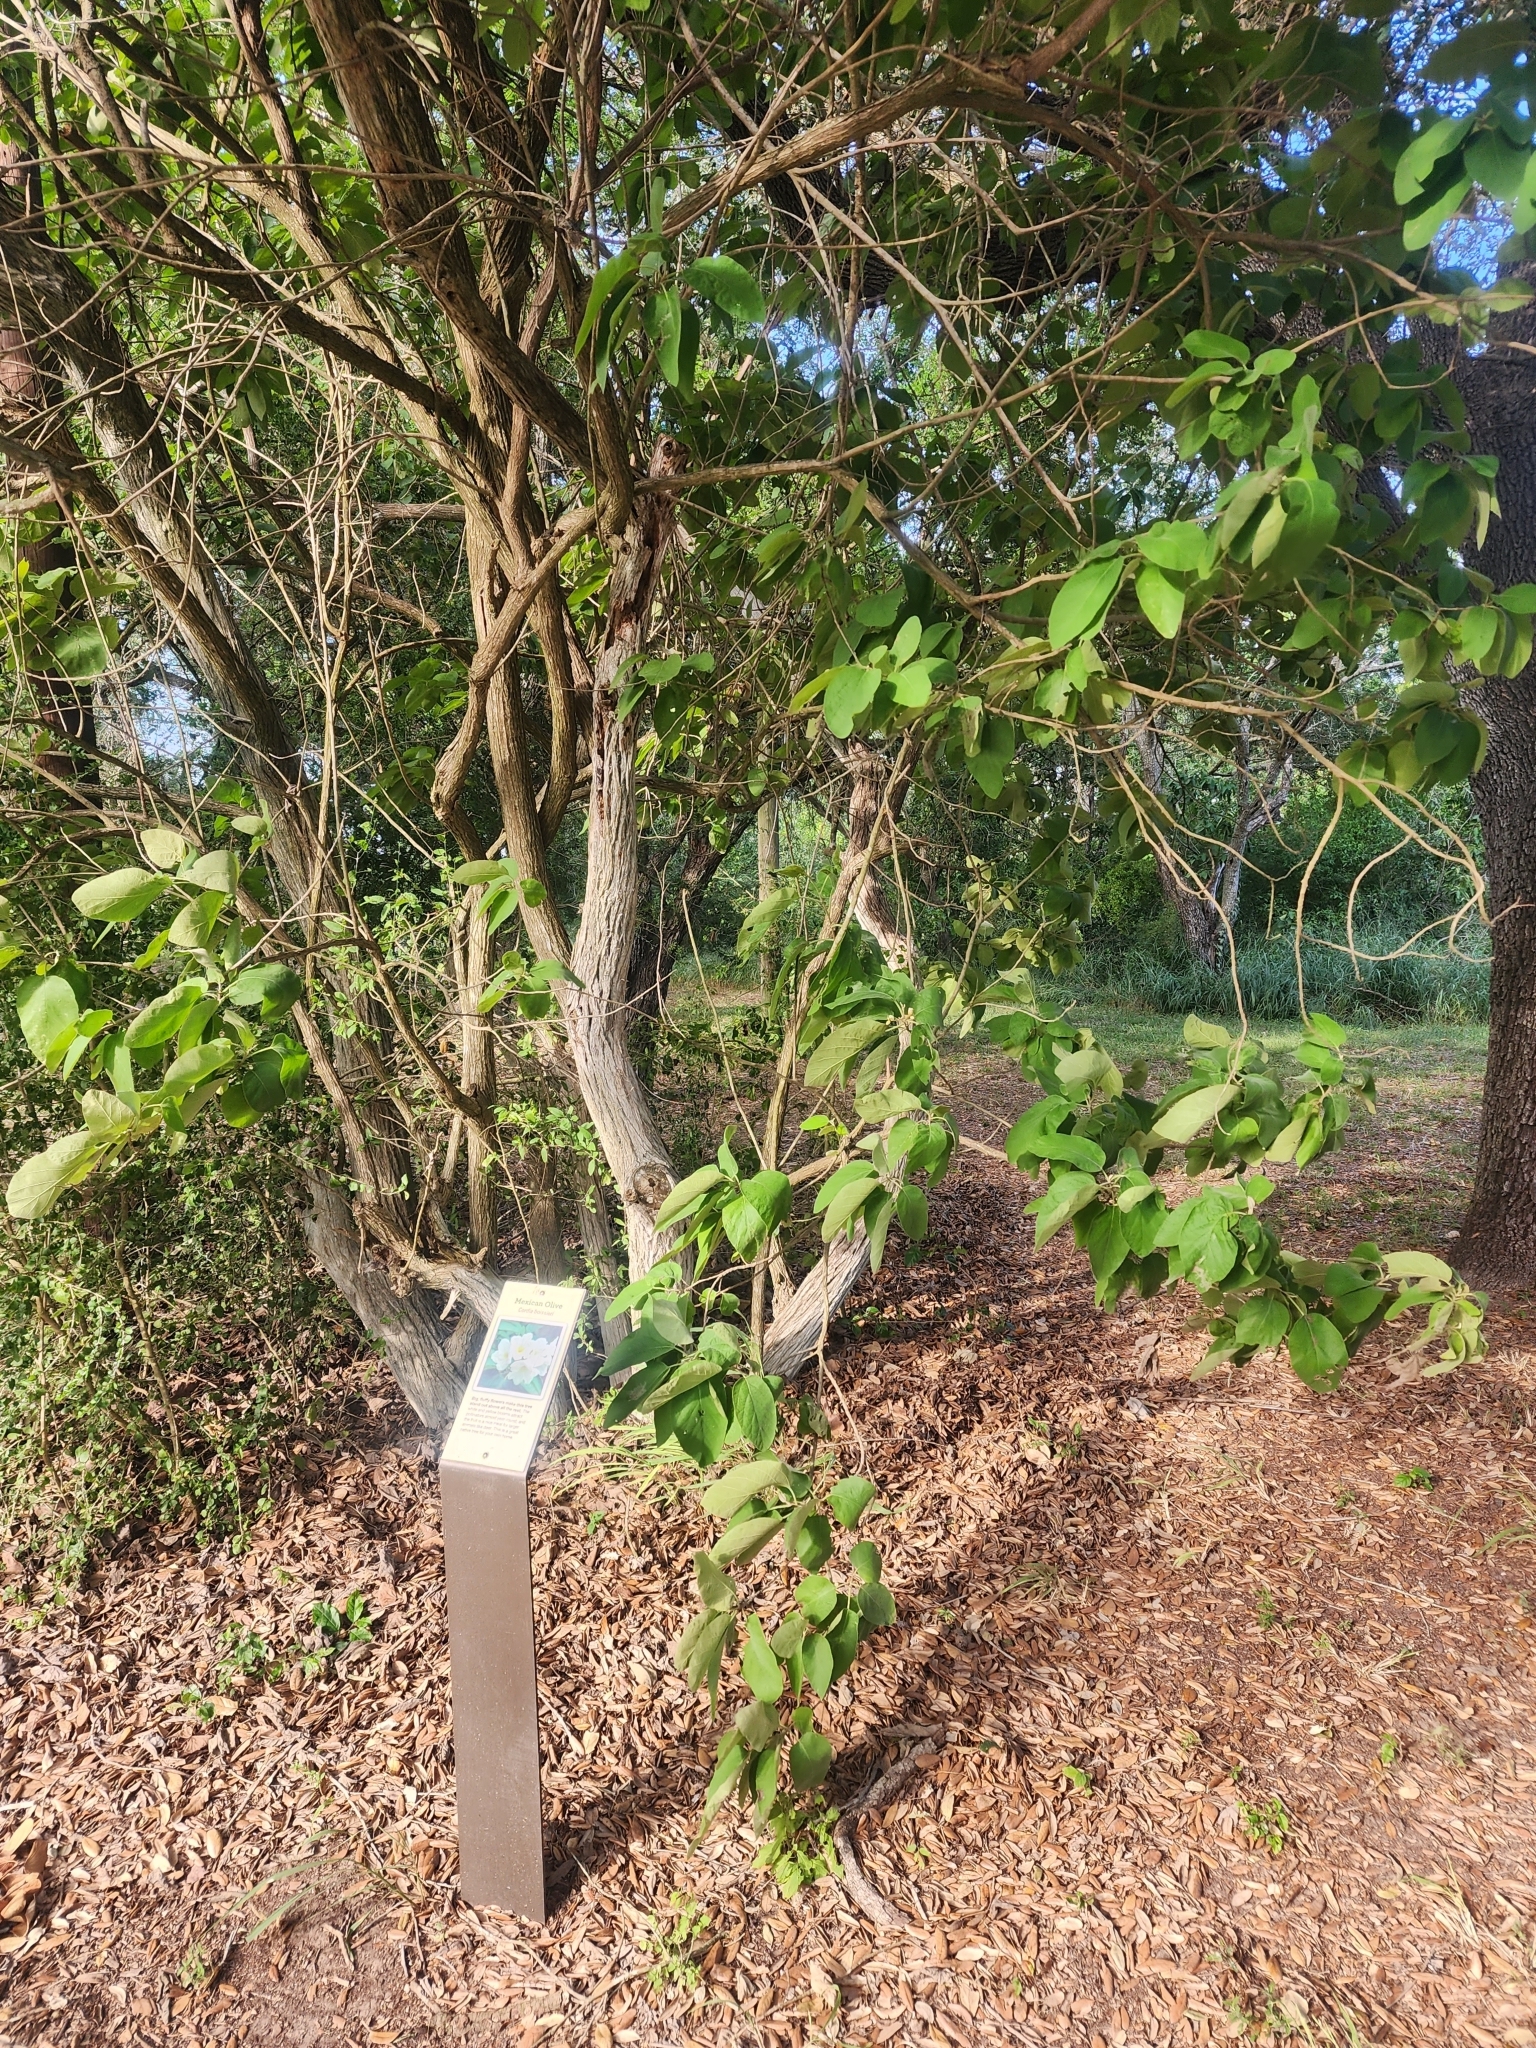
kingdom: Plantae
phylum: Tracheophyta
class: Magnoliopsida
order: Boraginales
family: Cordiaceae
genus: Cordia
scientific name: Cordia boissieri
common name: Mexican-olive
